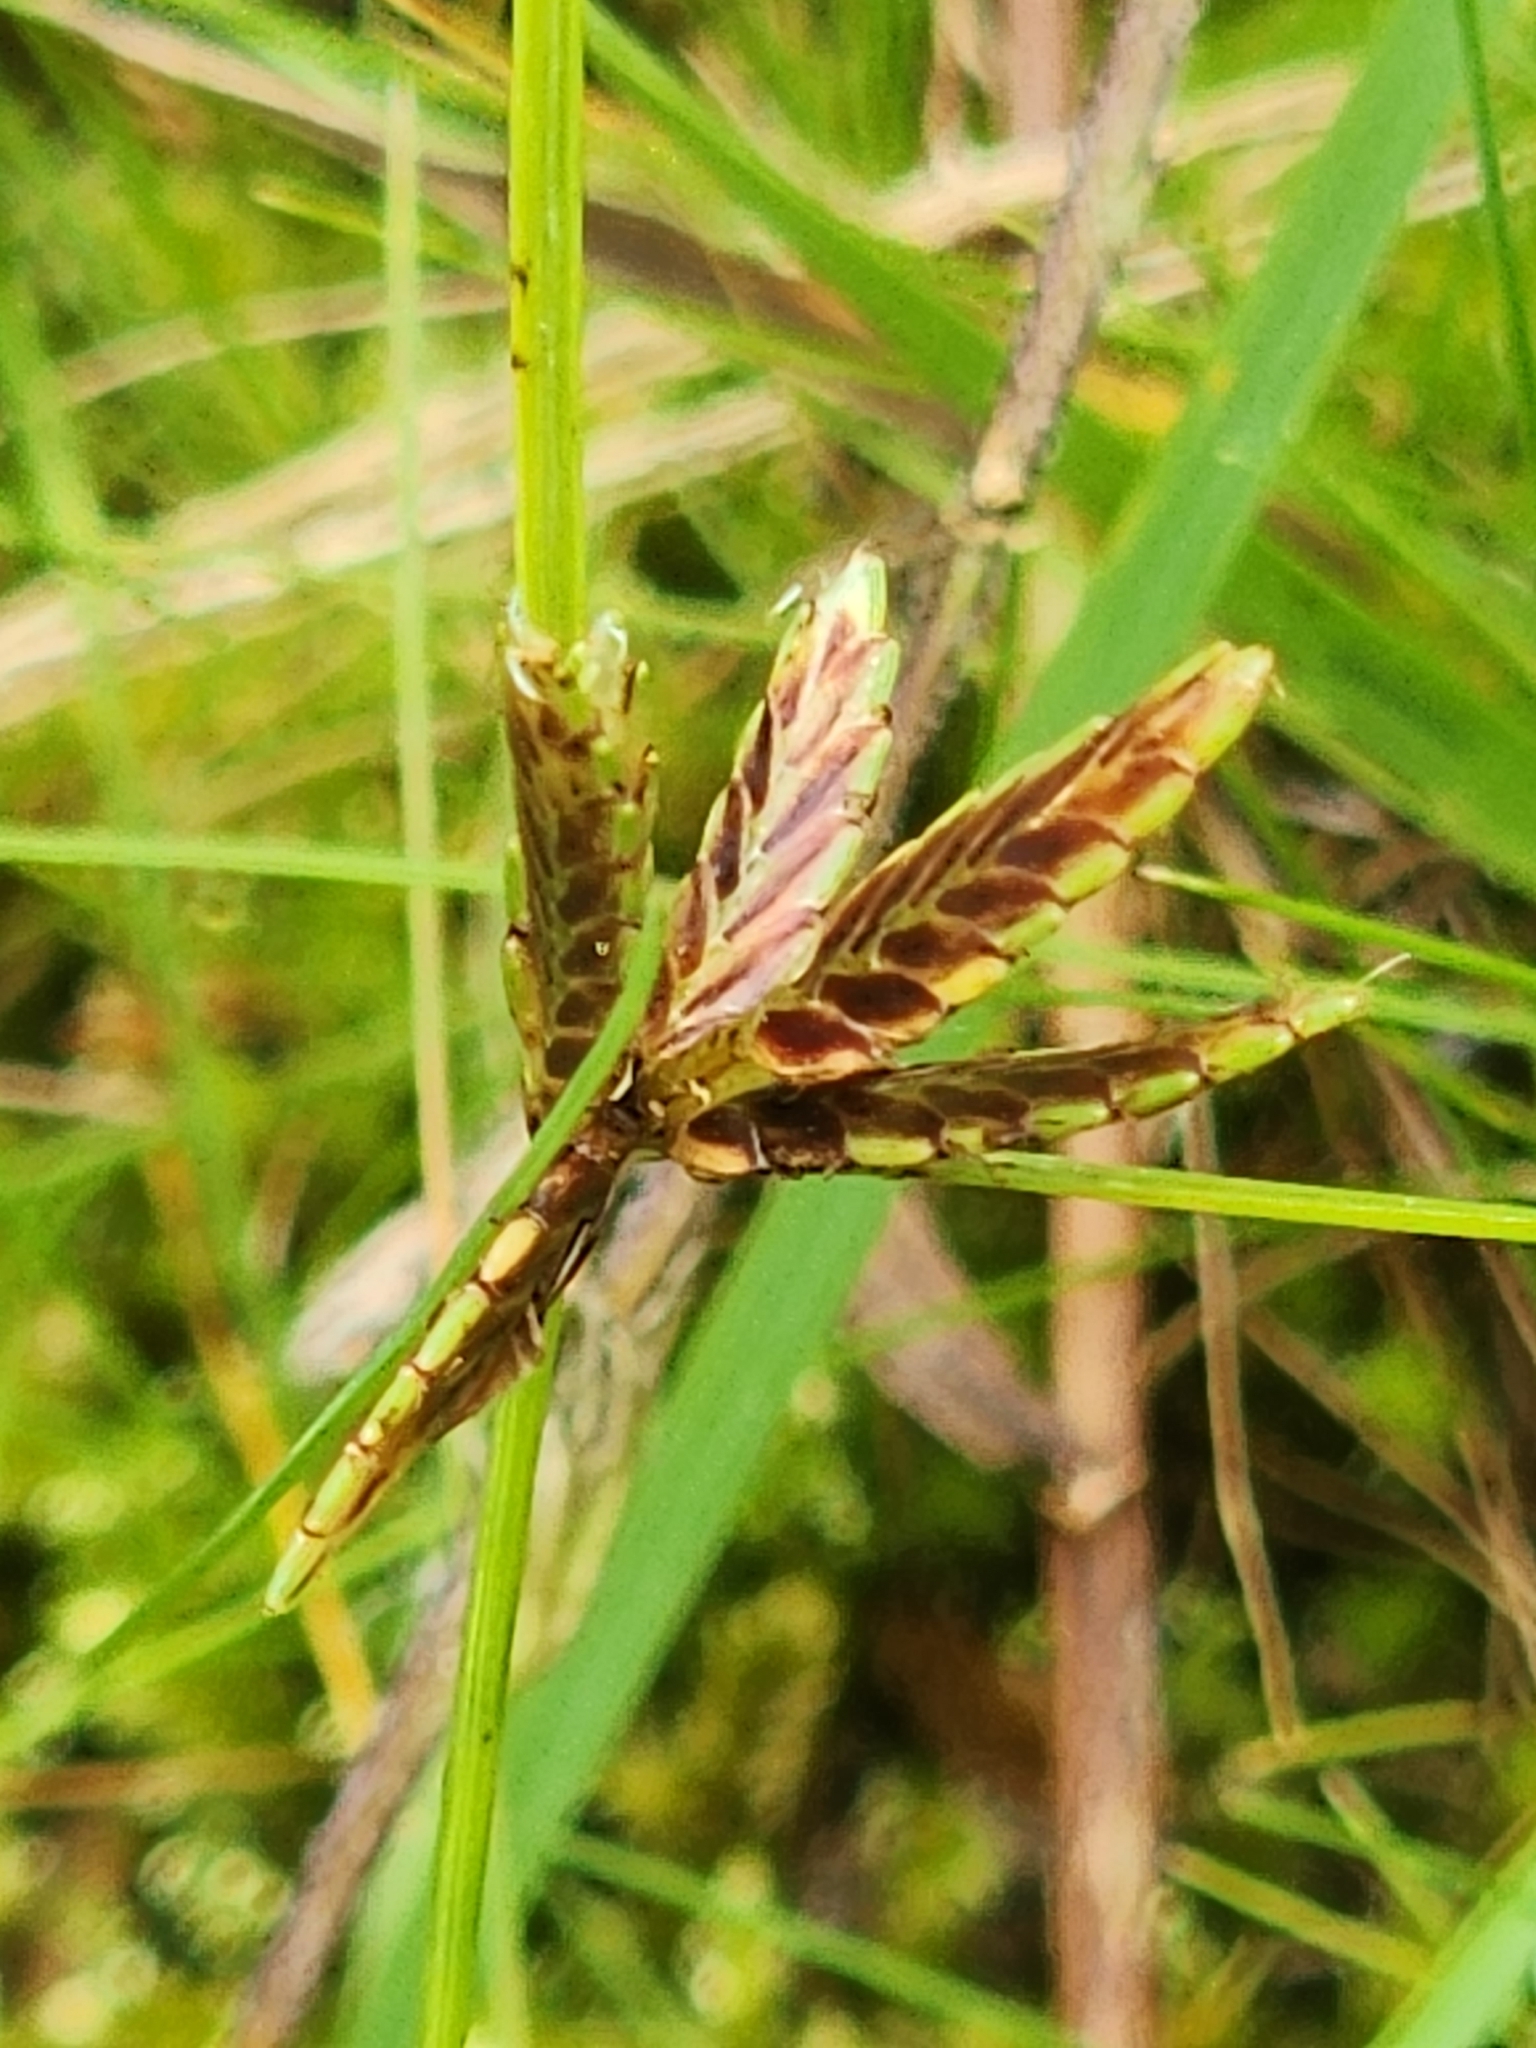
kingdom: Plantae
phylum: Tracheophyta
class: Liliopsida
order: Poales
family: Cyperaceae
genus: Cyperus
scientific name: Cyperus bipartitus
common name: Brook flatsedge
